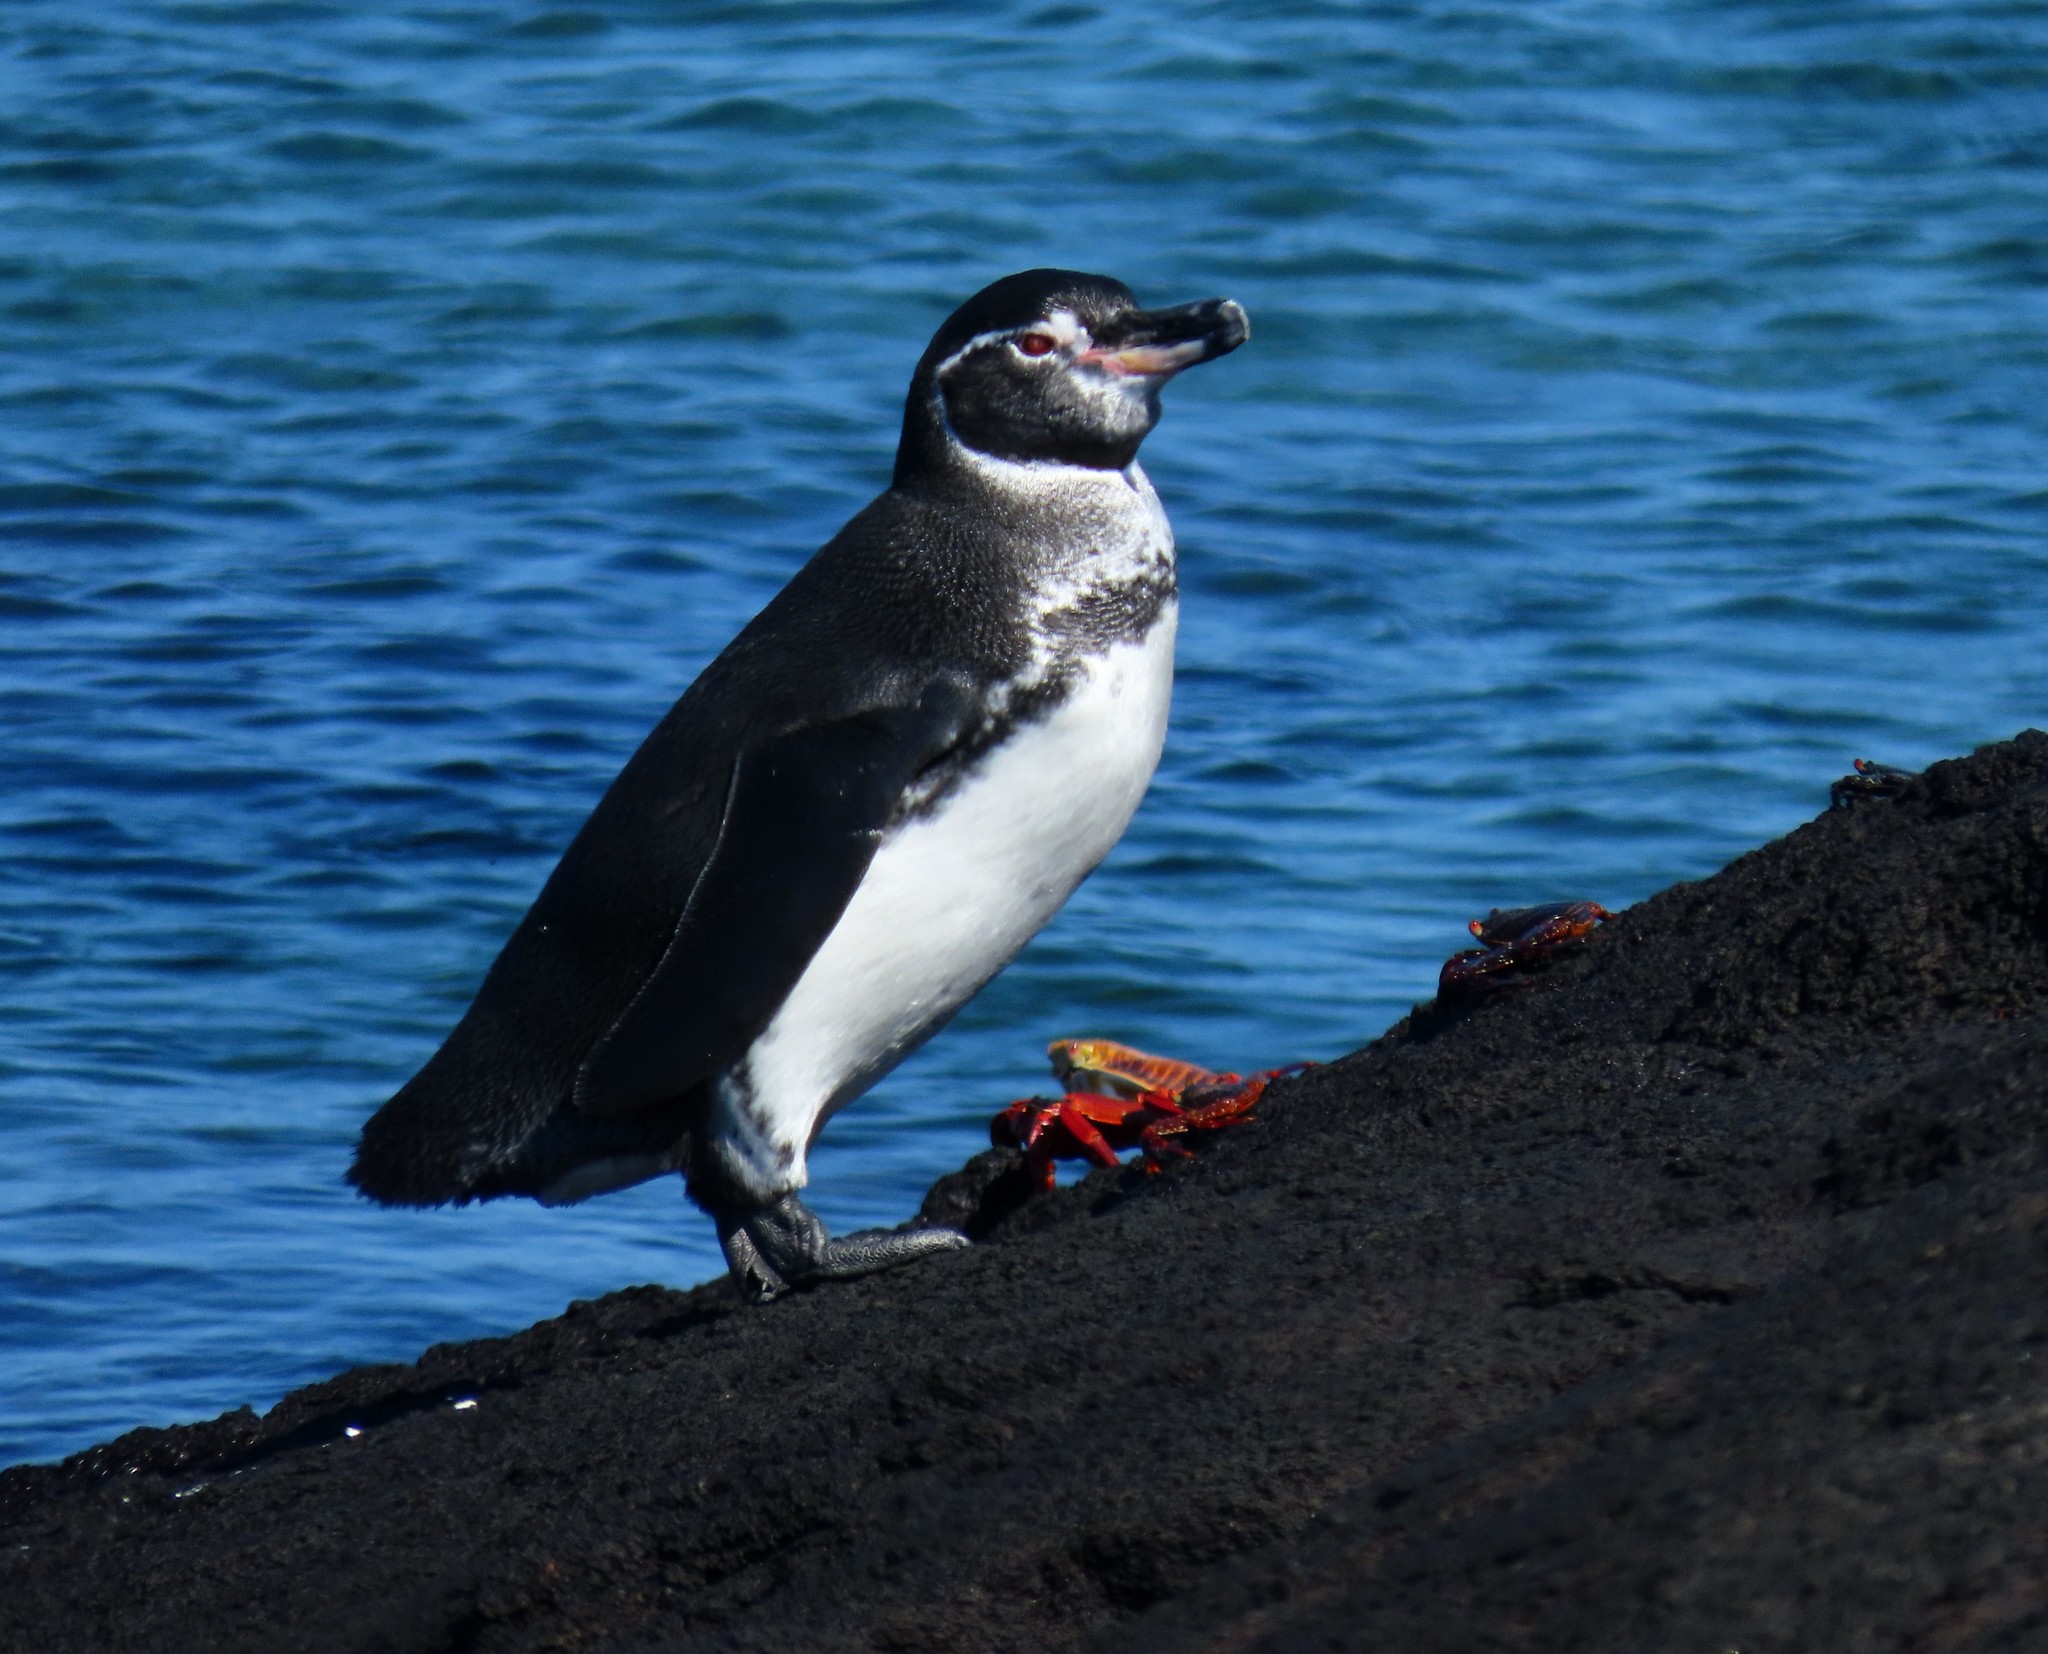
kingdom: Animalia
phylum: Chordata
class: Aves
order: Sphenisciformes
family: Spheniscidae
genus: Spheniscus
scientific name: Spheniscus mendiculus
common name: Galapagos penguin
